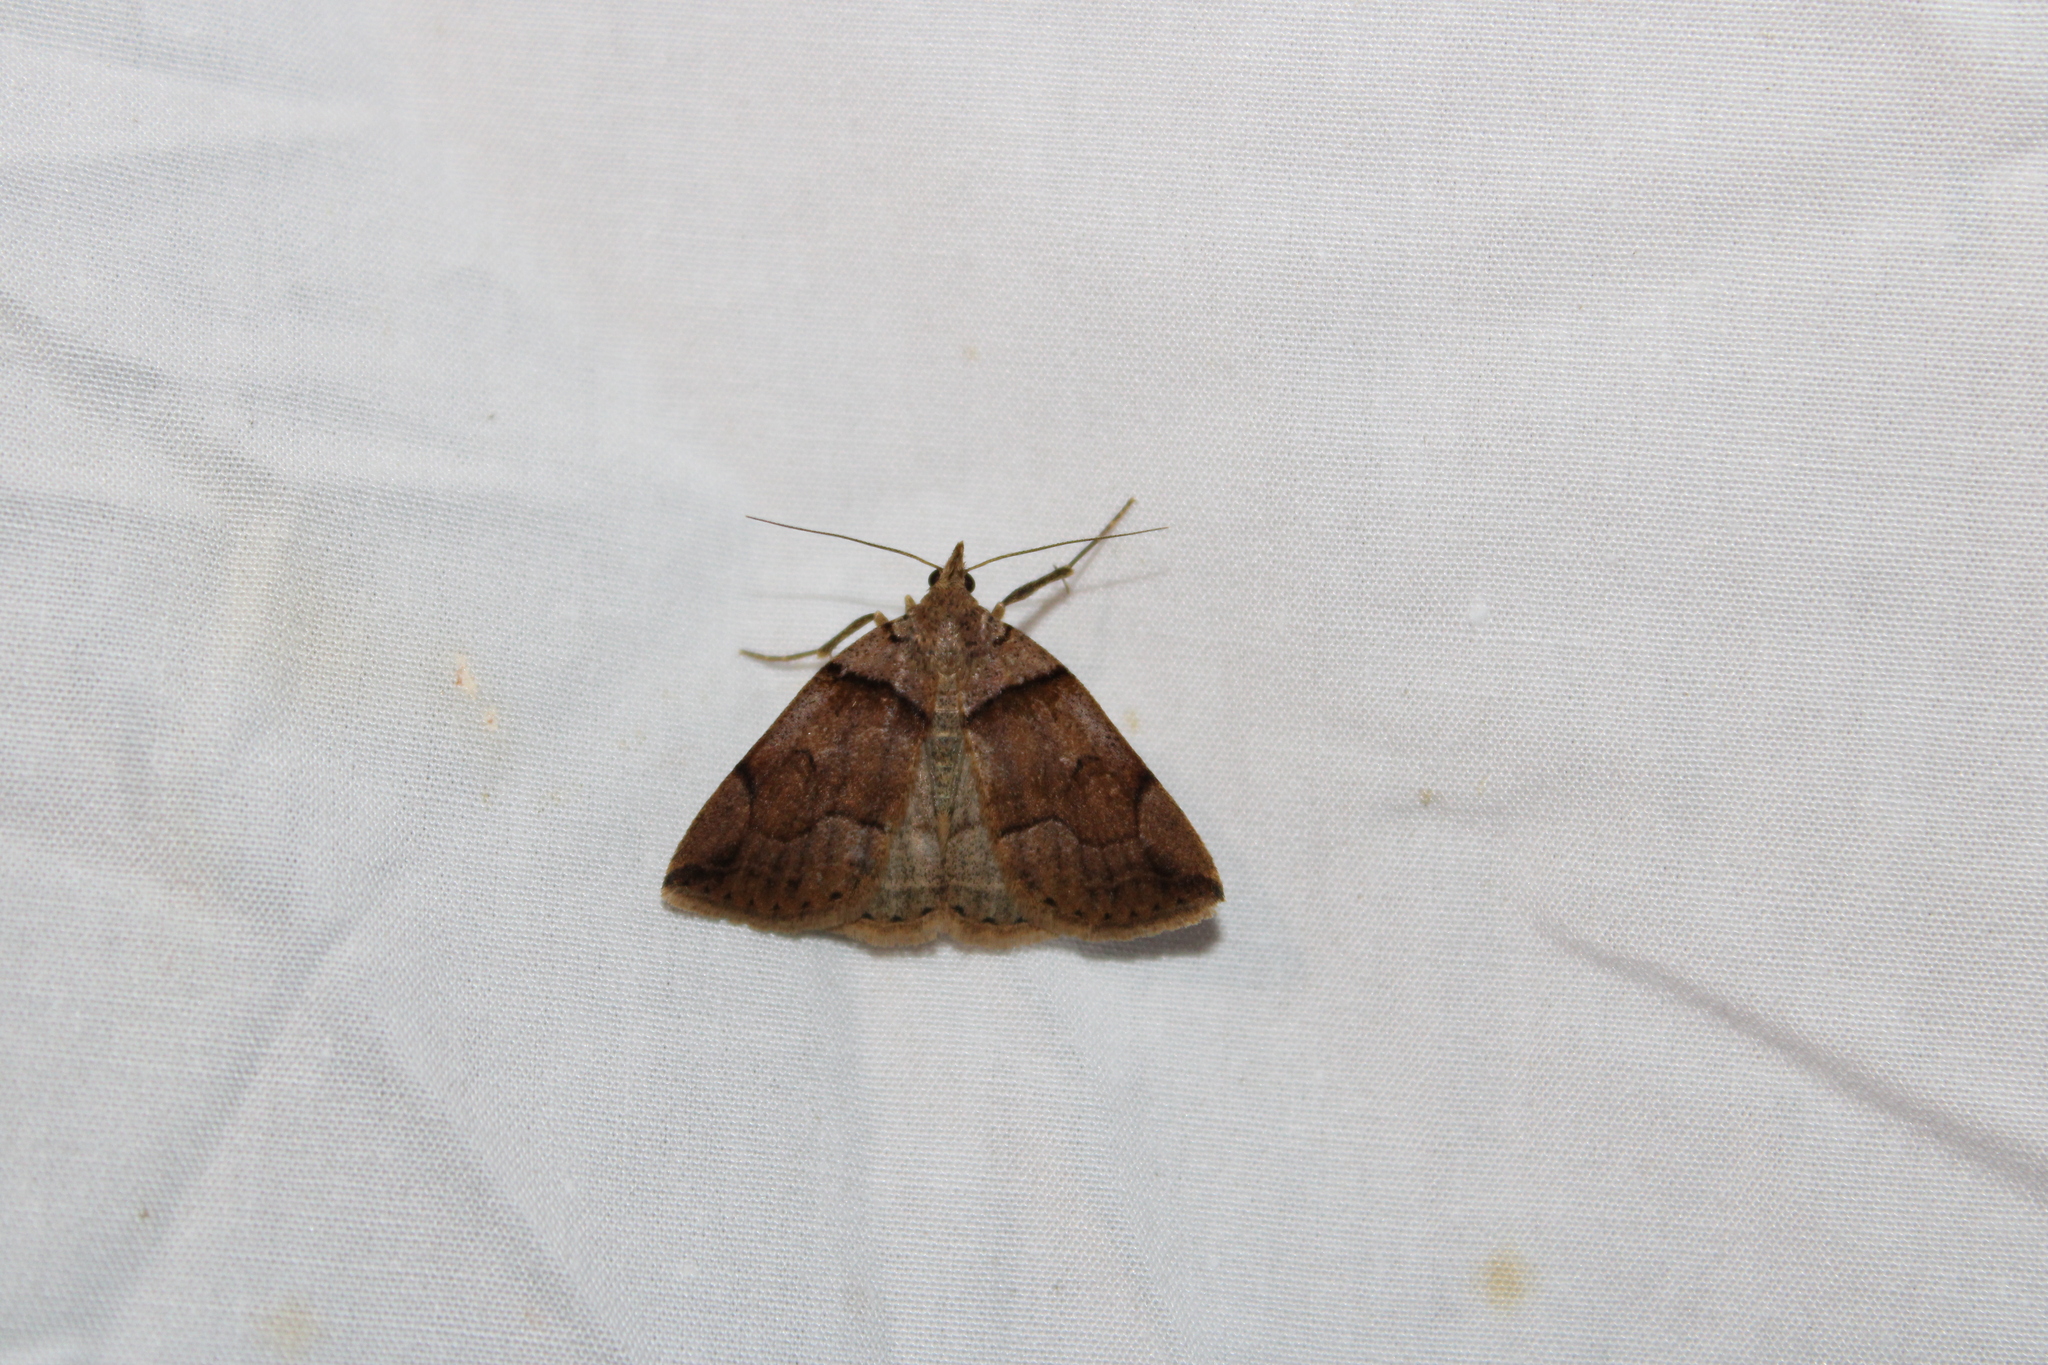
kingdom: Animalia
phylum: Arthropoda
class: Insecta
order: Lepidoptera
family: Erebidae
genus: Zanclognatha
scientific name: Zanclognatha laevigata
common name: Variable fan-foot
